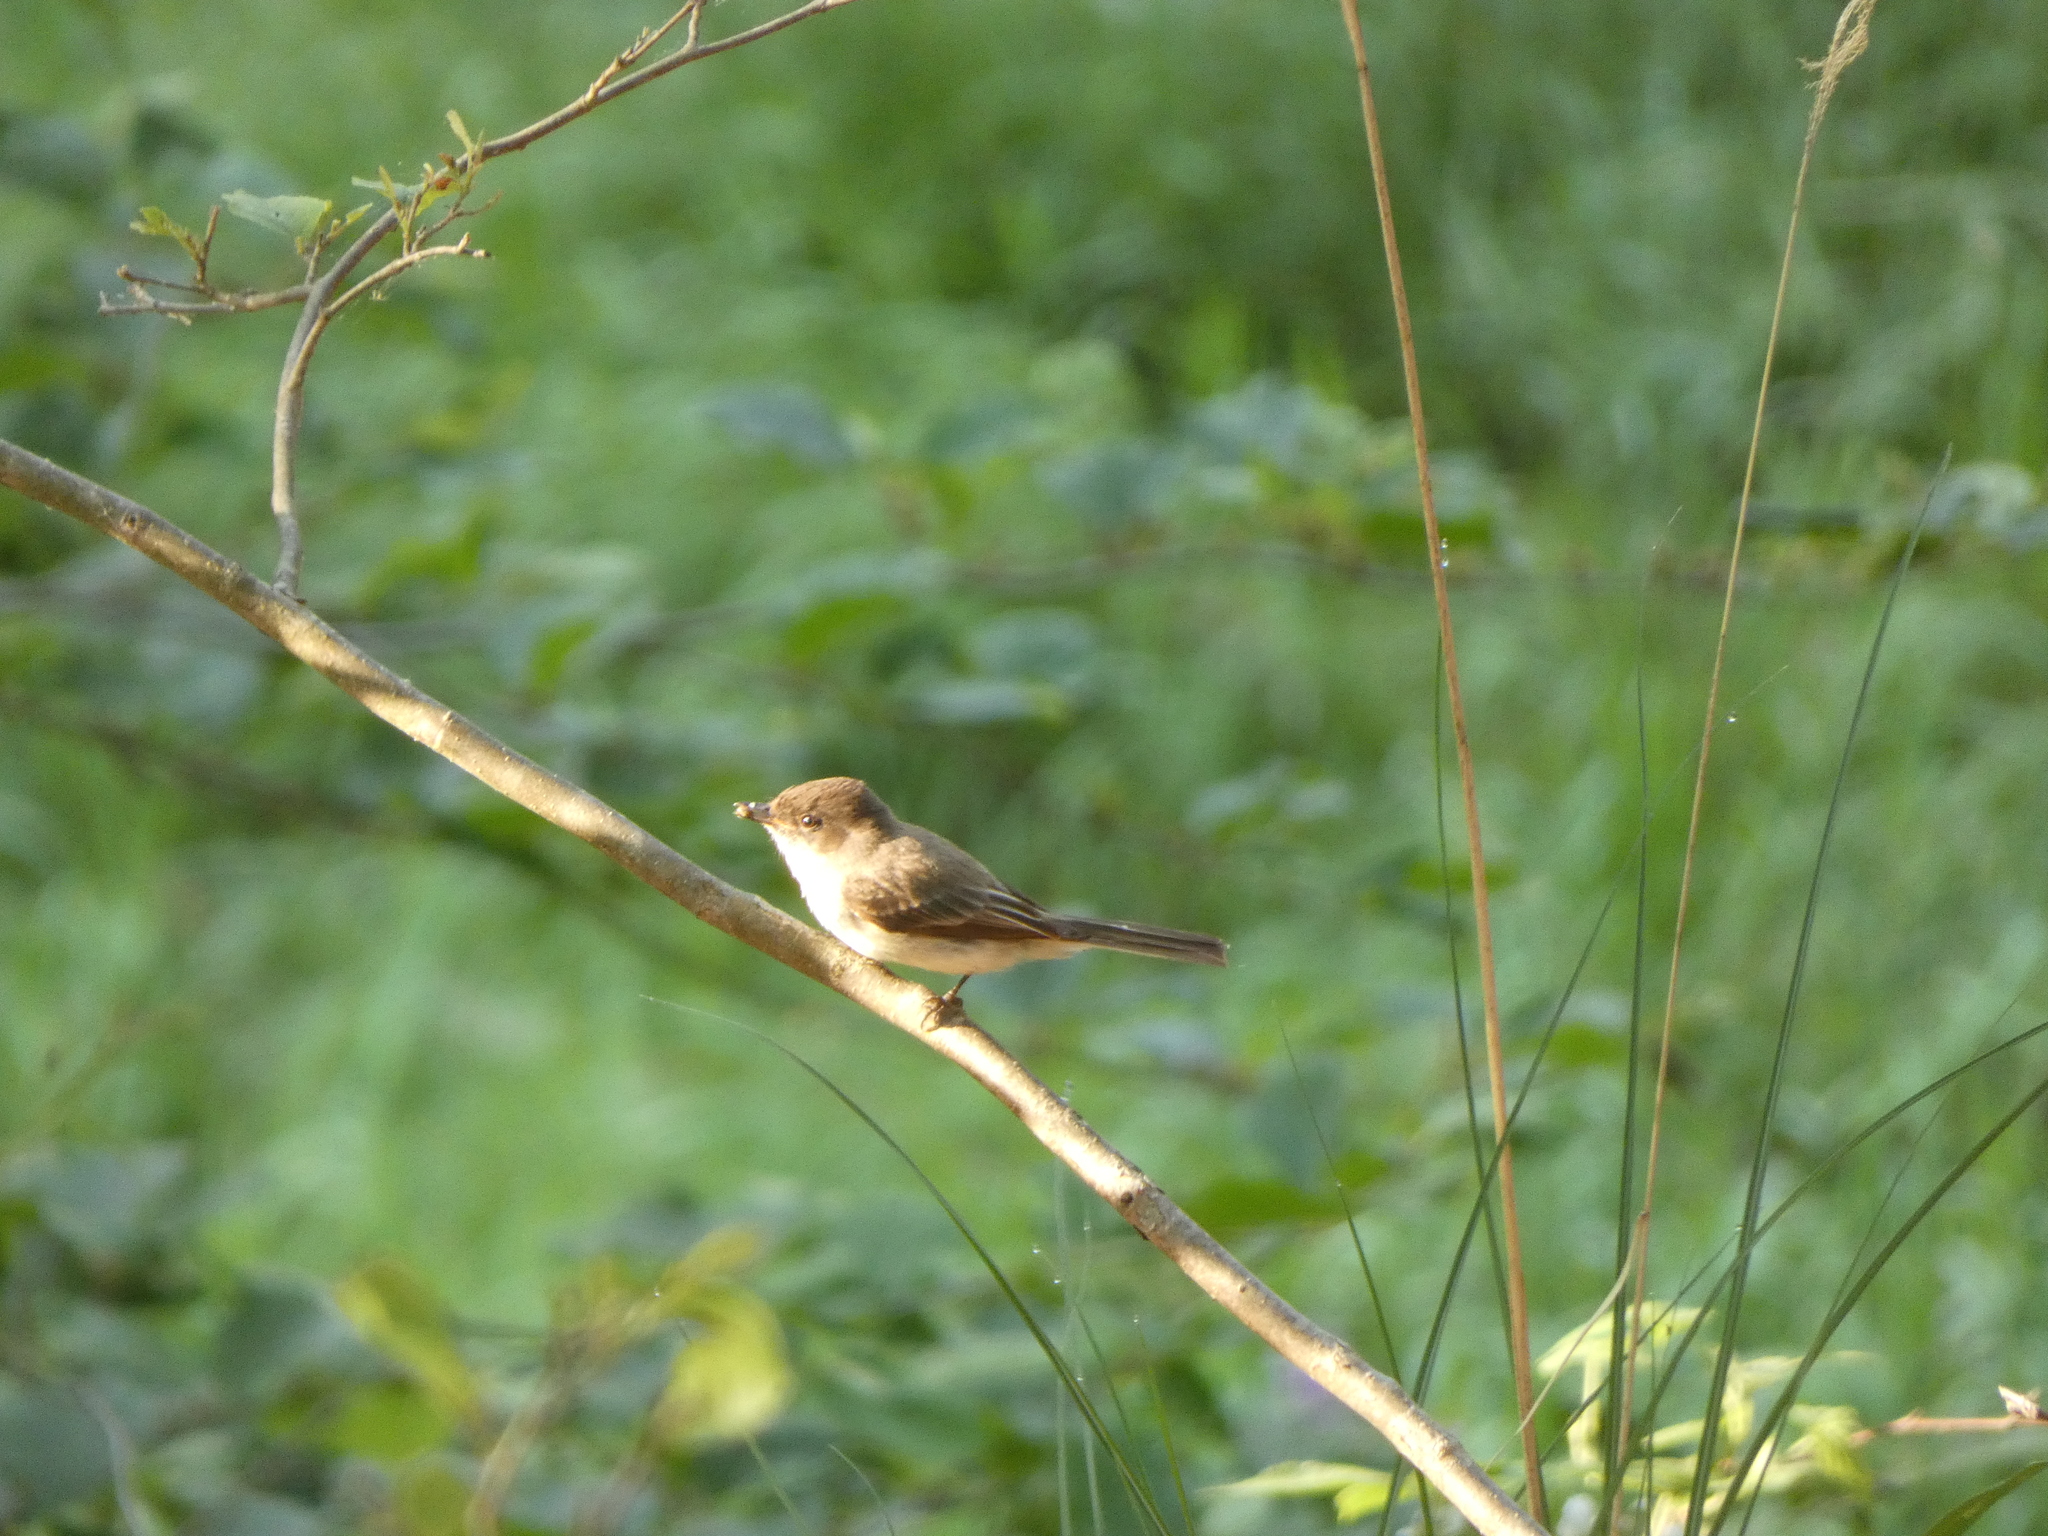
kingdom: Animalia
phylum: Chordata
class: Aves
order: Passeriformes
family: Tyrannidae
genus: Sayornis
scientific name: Sayornis phoebe
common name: Eastern phoebe
